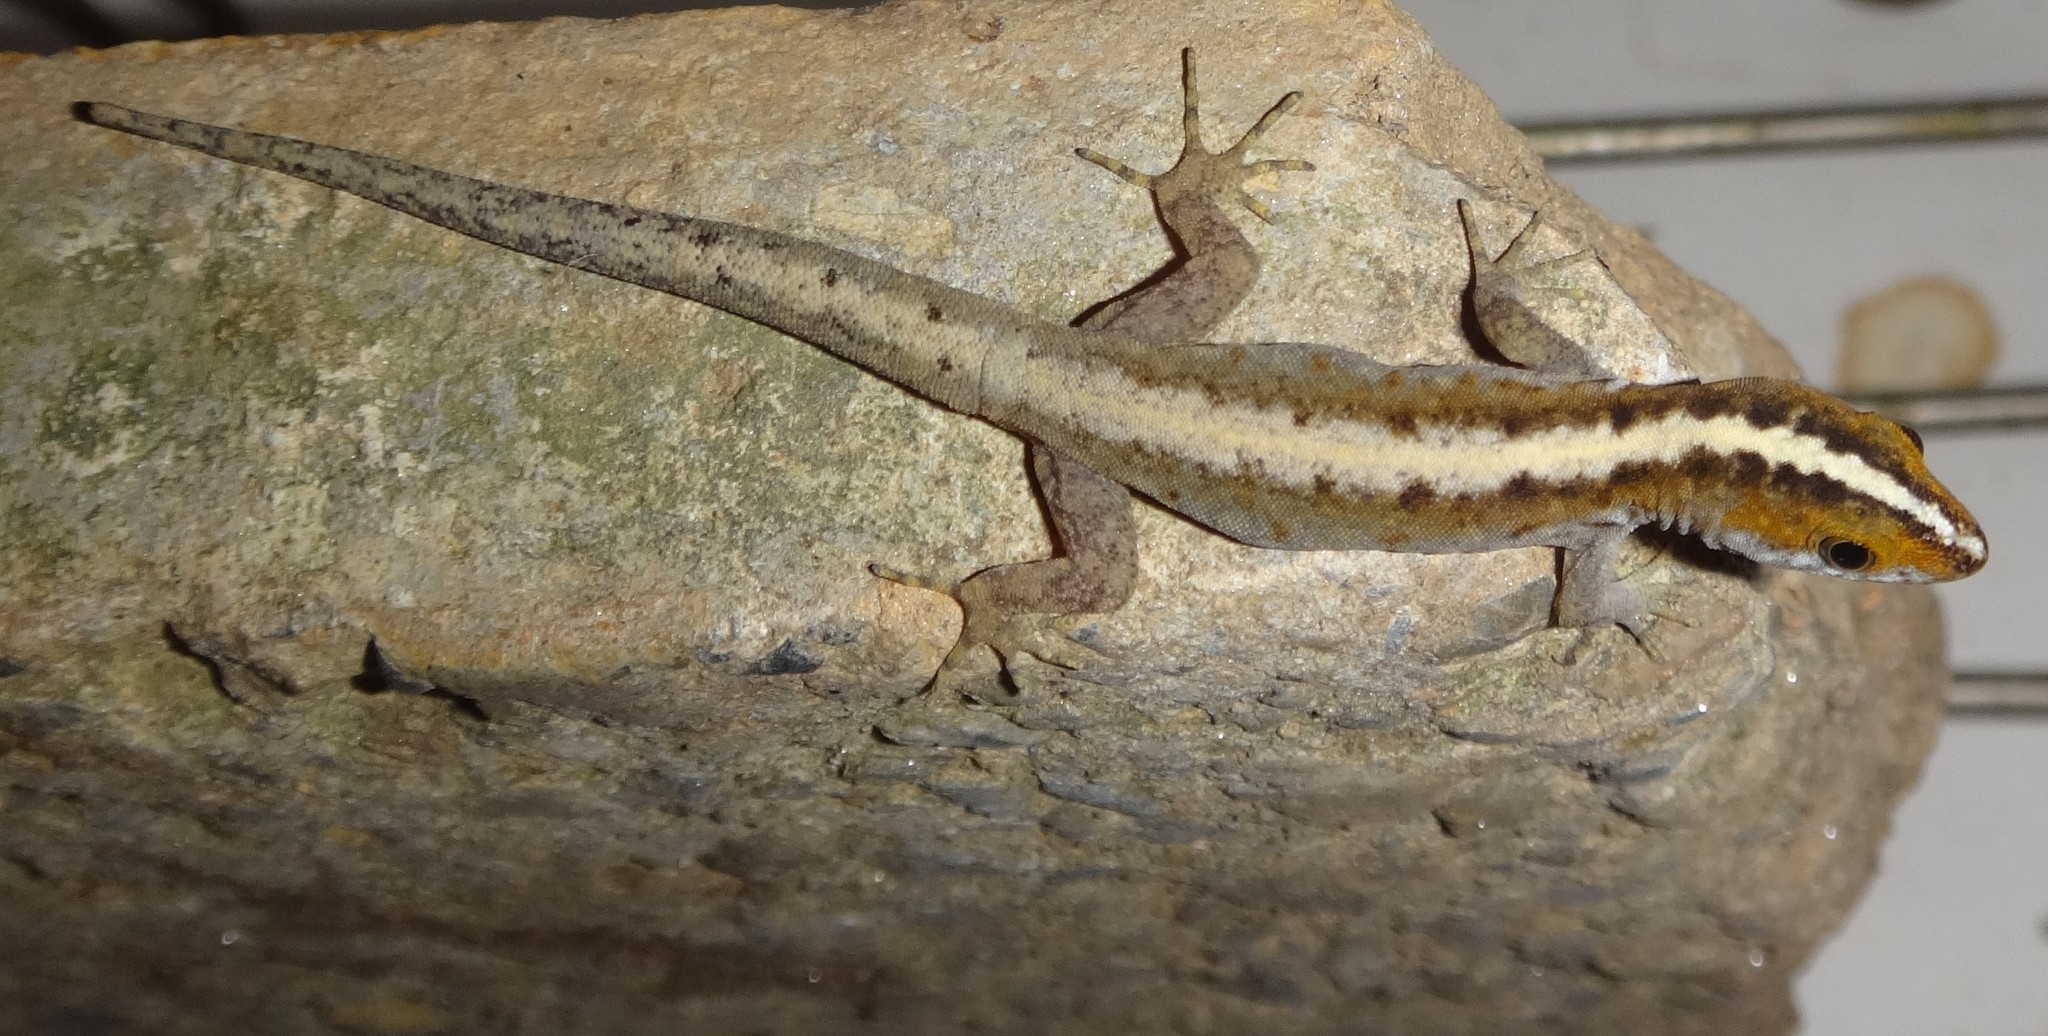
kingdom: Animalia
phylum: Chordata
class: Squamata
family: Sphaerodactylidae
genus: Gonatodes
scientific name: Gonatodes vittatus
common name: Wiegmann's striped gecko
